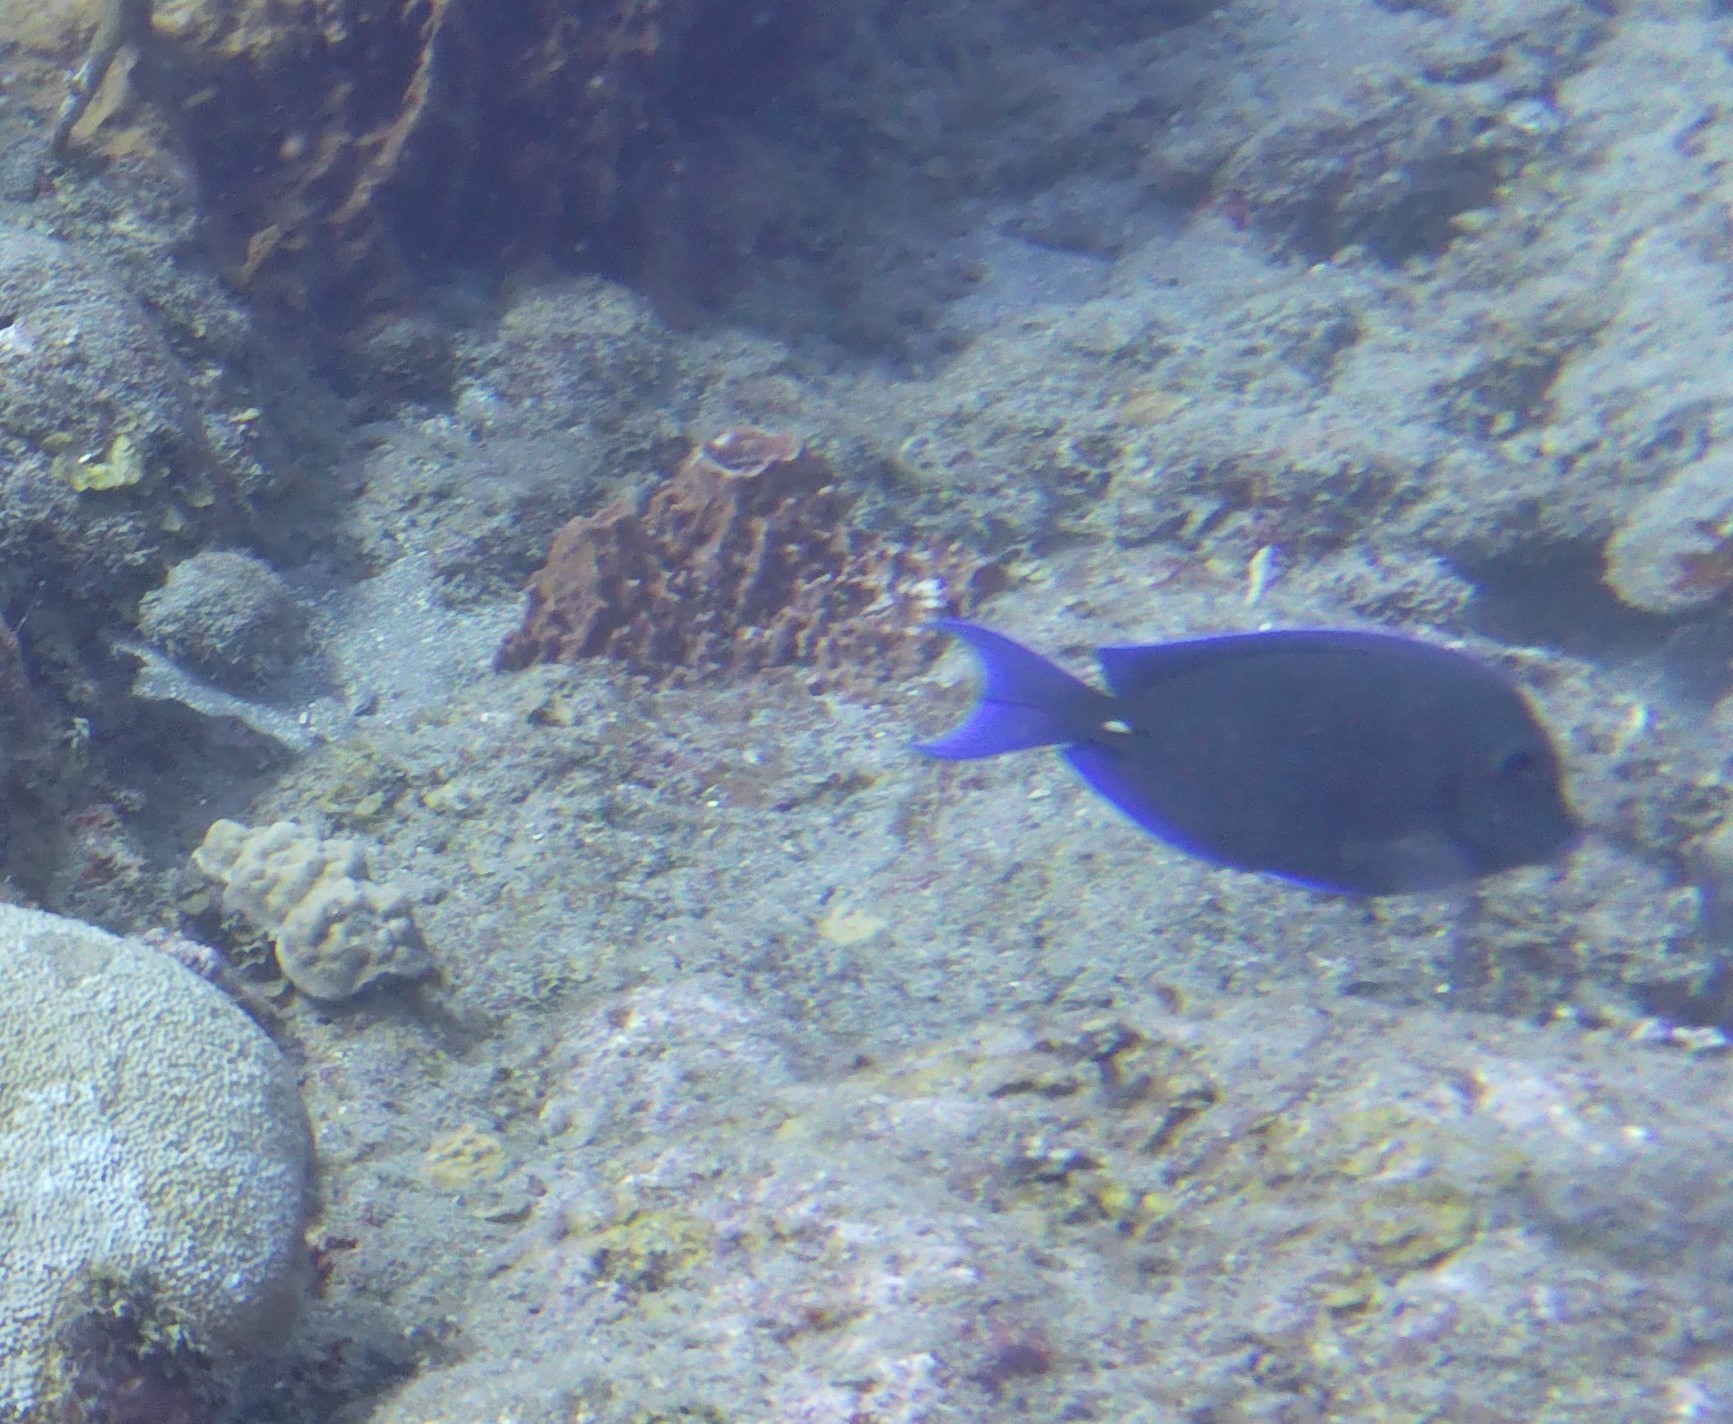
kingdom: Animalia
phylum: Chordata
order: Perciformes
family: Acanthuridae
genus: Acanthurus
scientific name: Acanthurus coeruleus
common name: Blue tang
